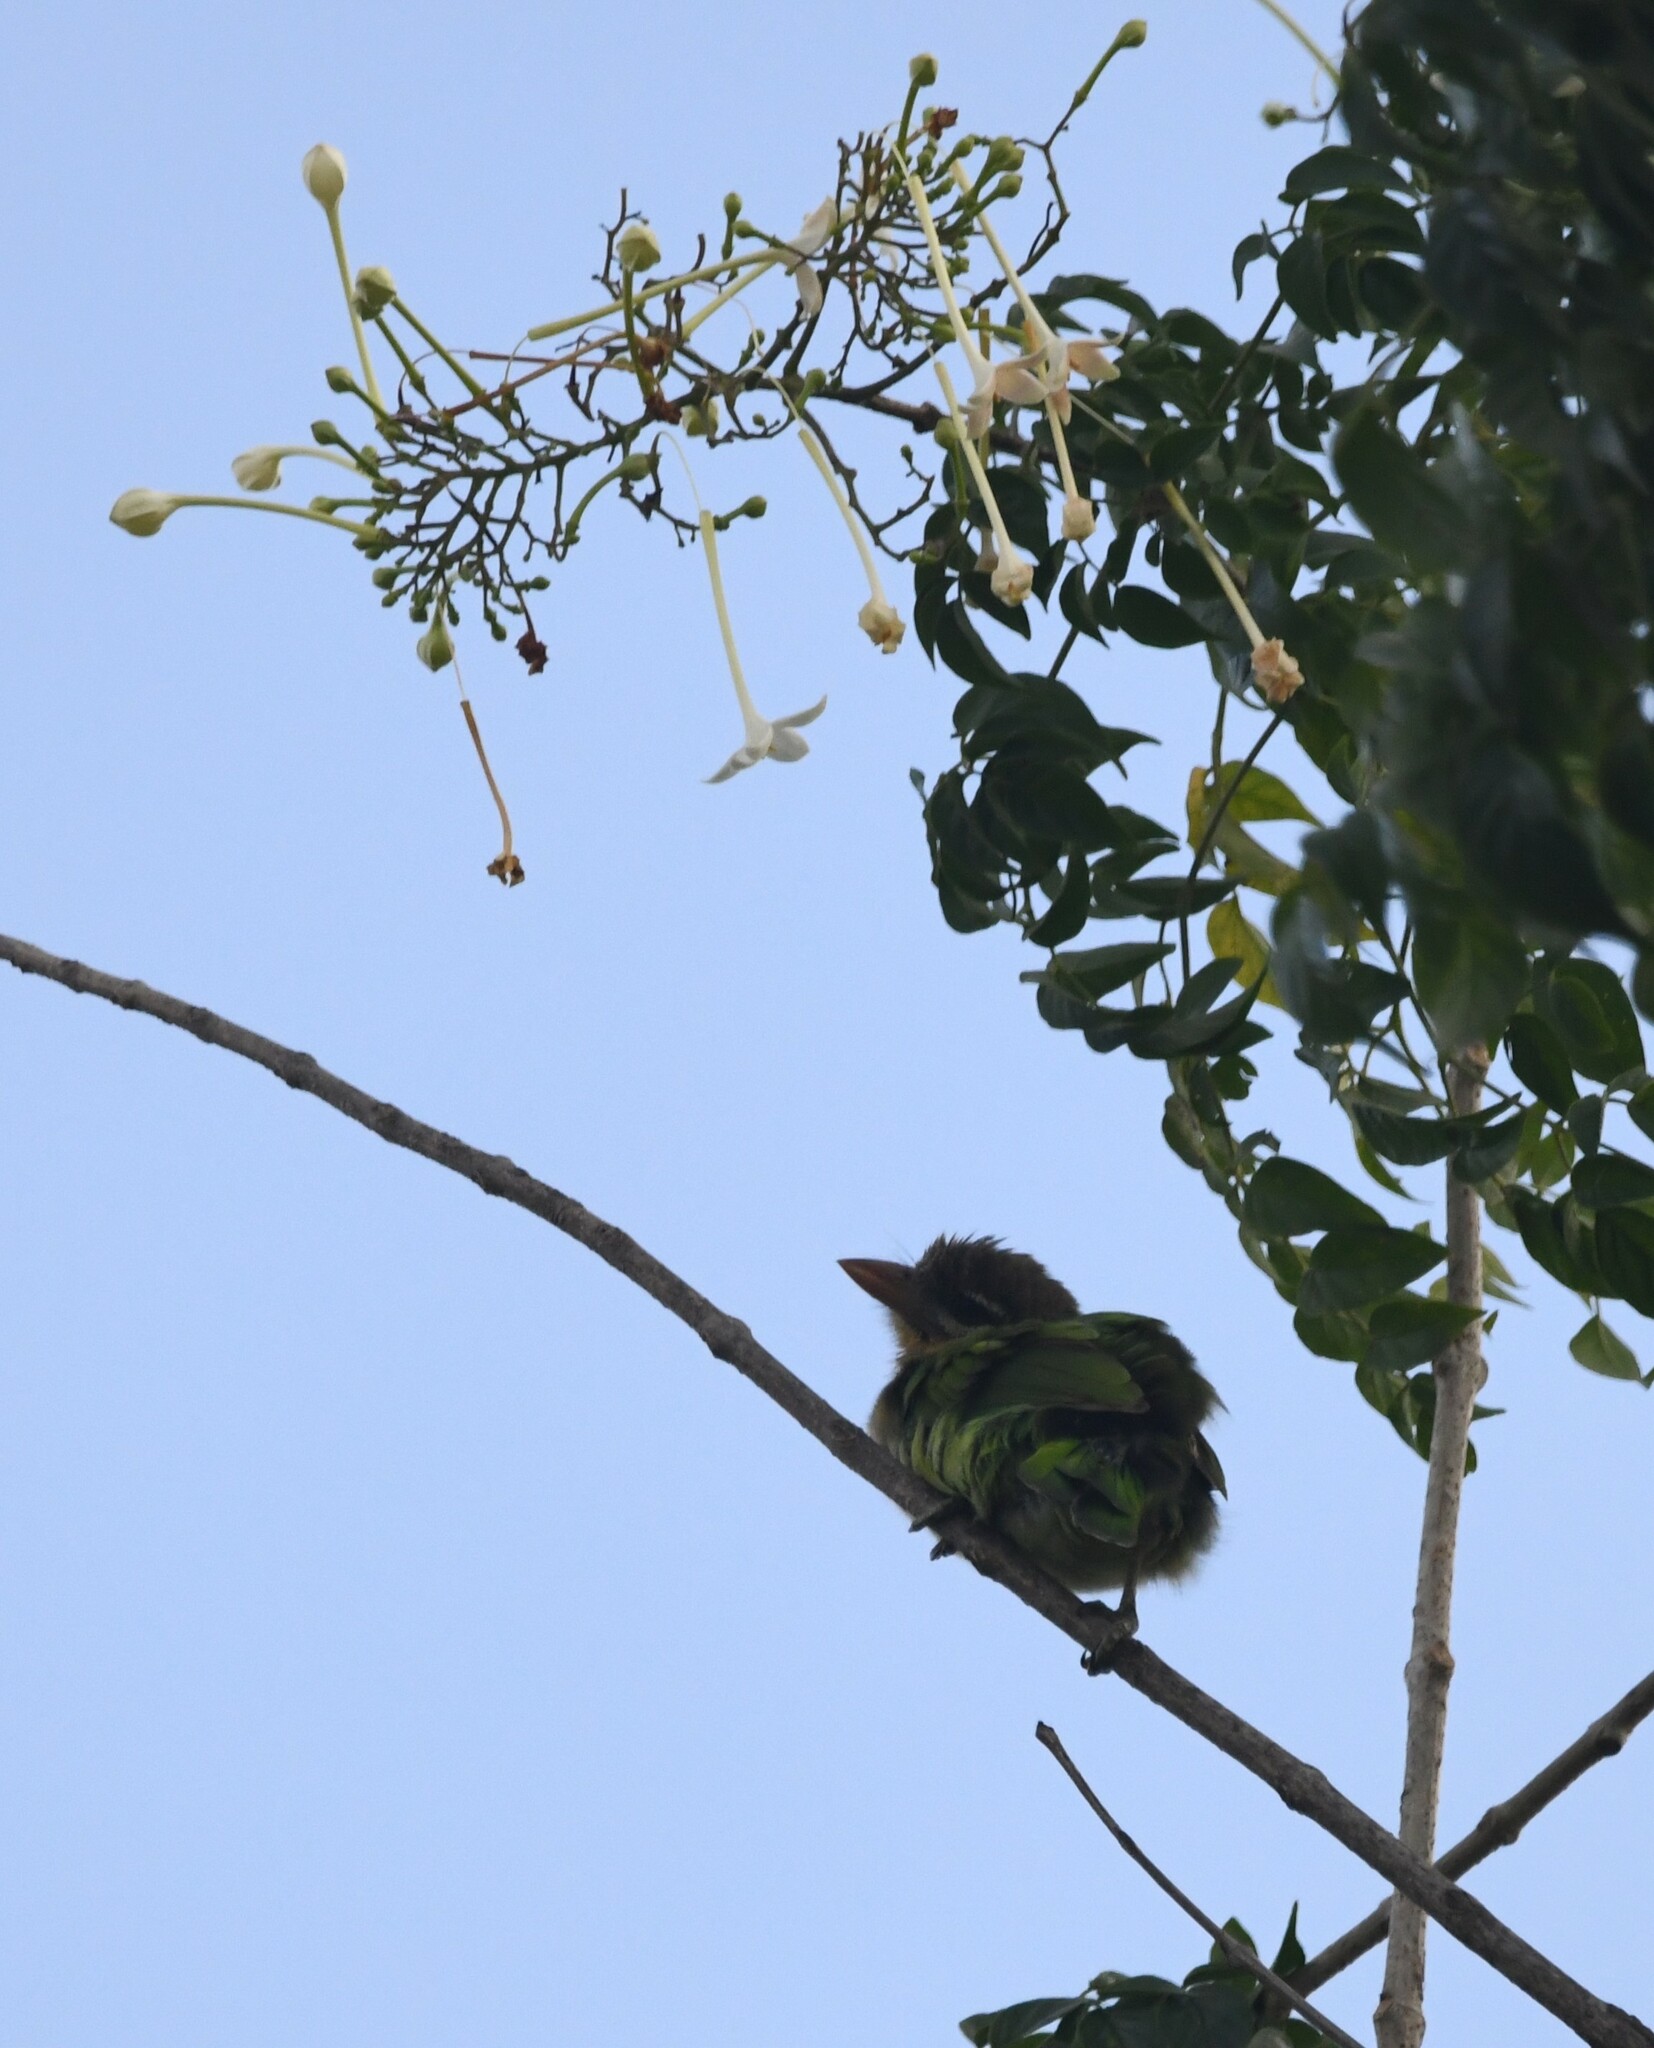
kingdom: Animalia
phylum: Chordata
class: Aves
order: Piciformes
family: Megalaimidae
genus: Psilopogon
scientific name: Psilopogon viridis
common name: White-cheeked barbet
